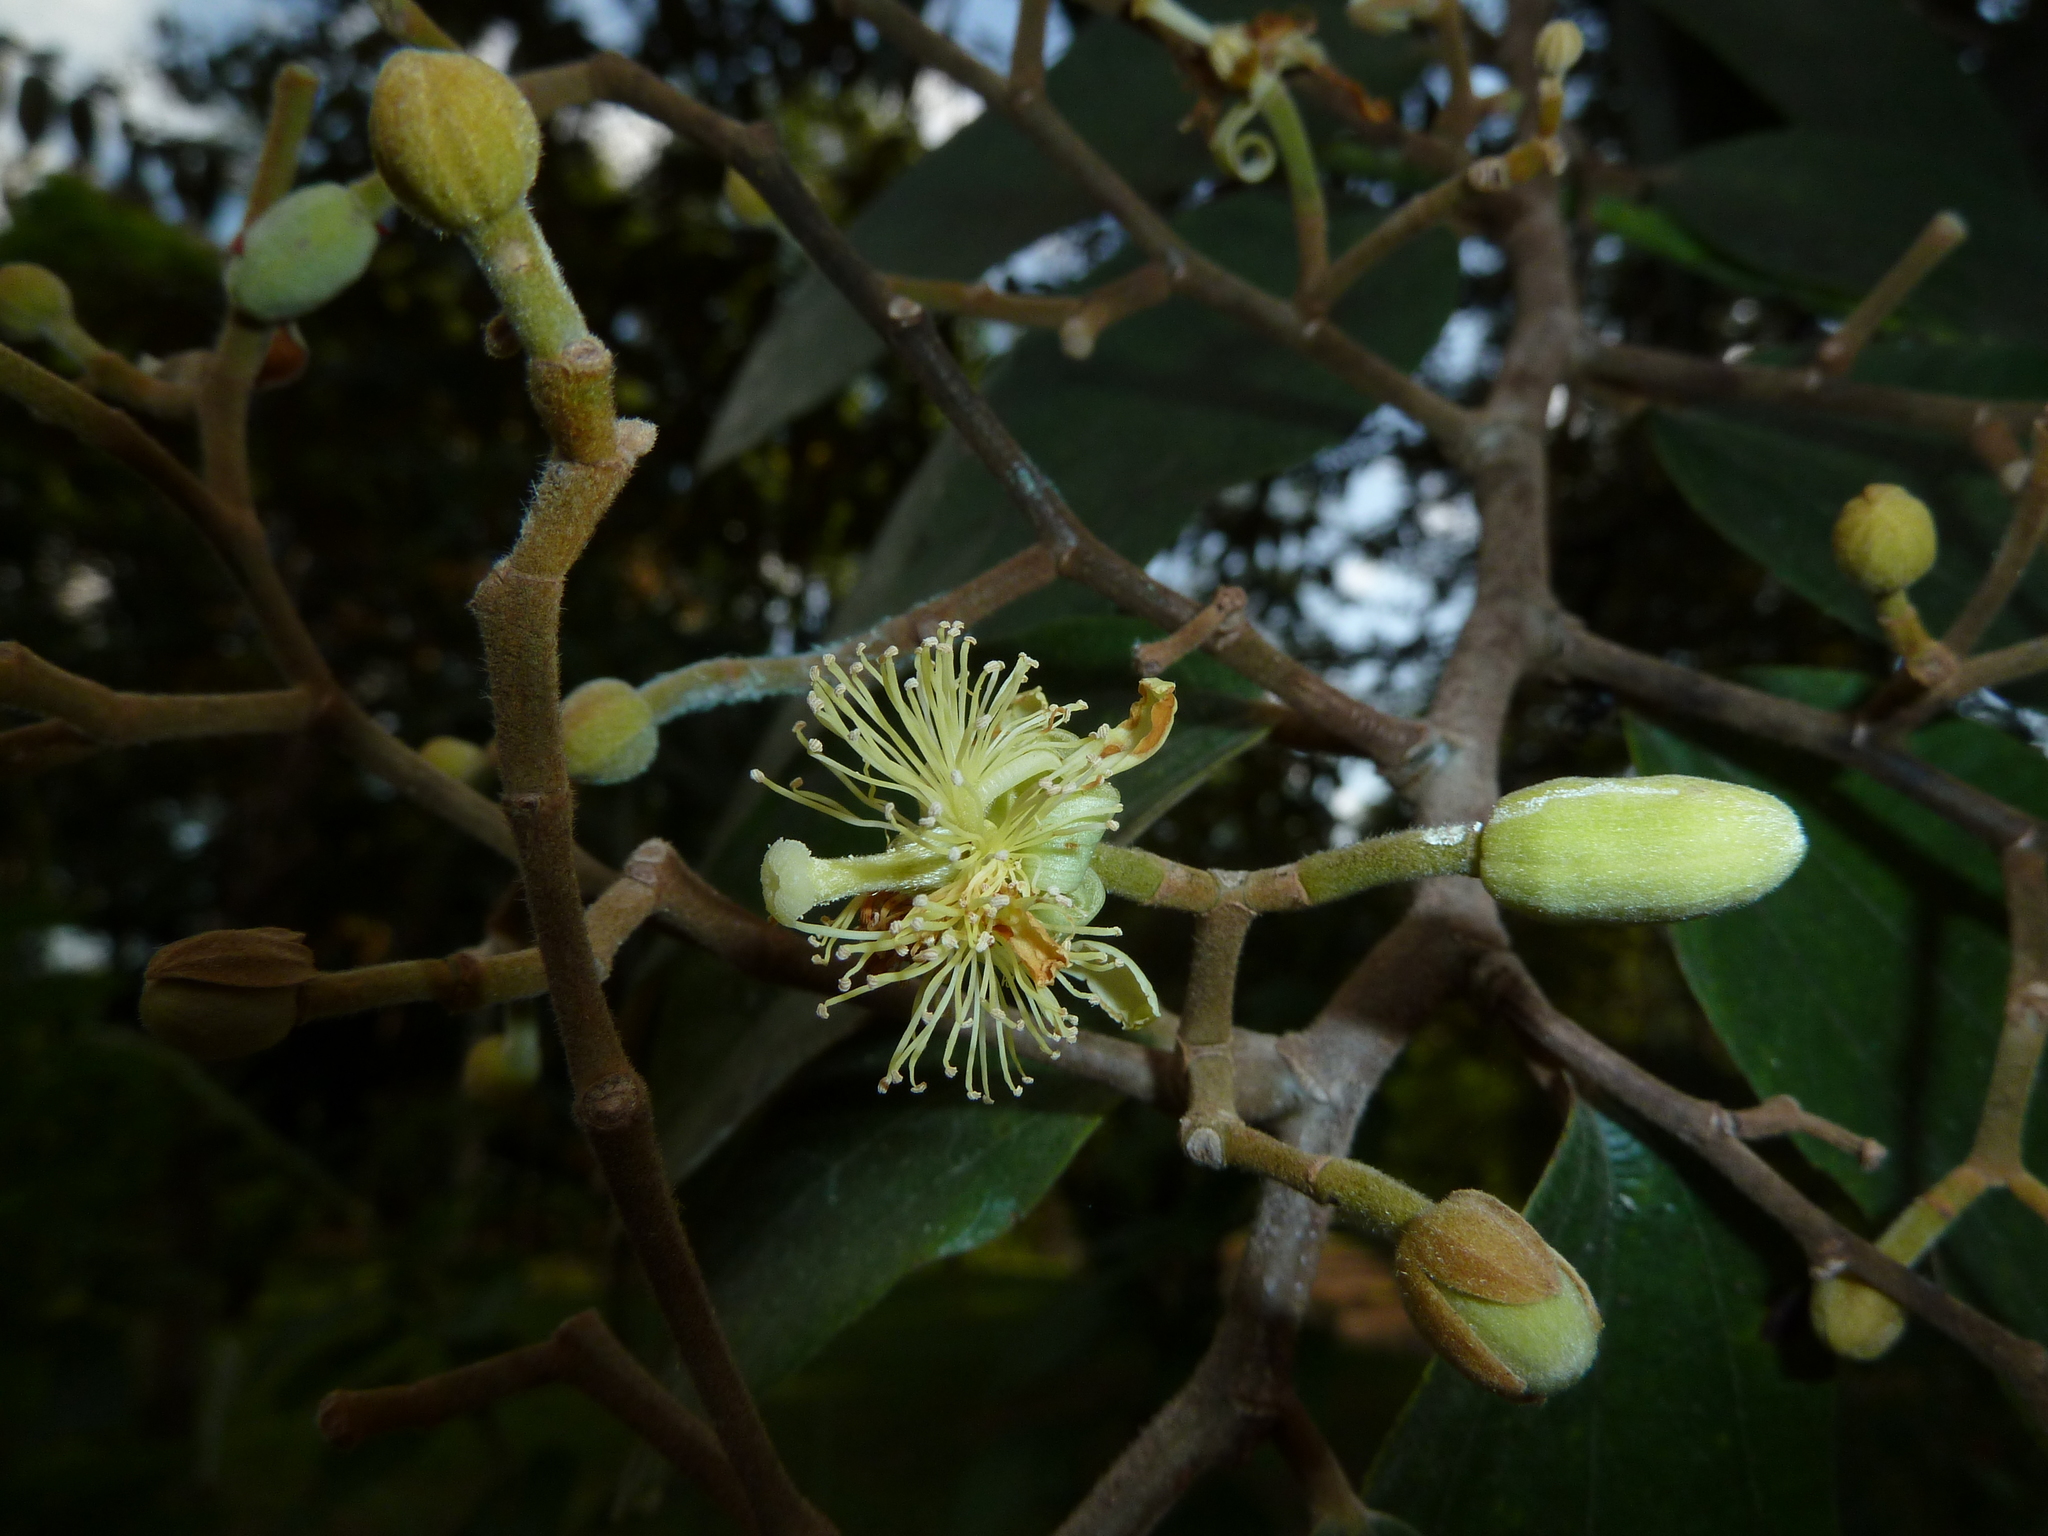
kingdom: Plantae
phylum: Tracheophyta
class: Magnoliopsida
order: Malvales
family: Malvaceae
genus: Luehea
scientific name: Luehea seemannii
